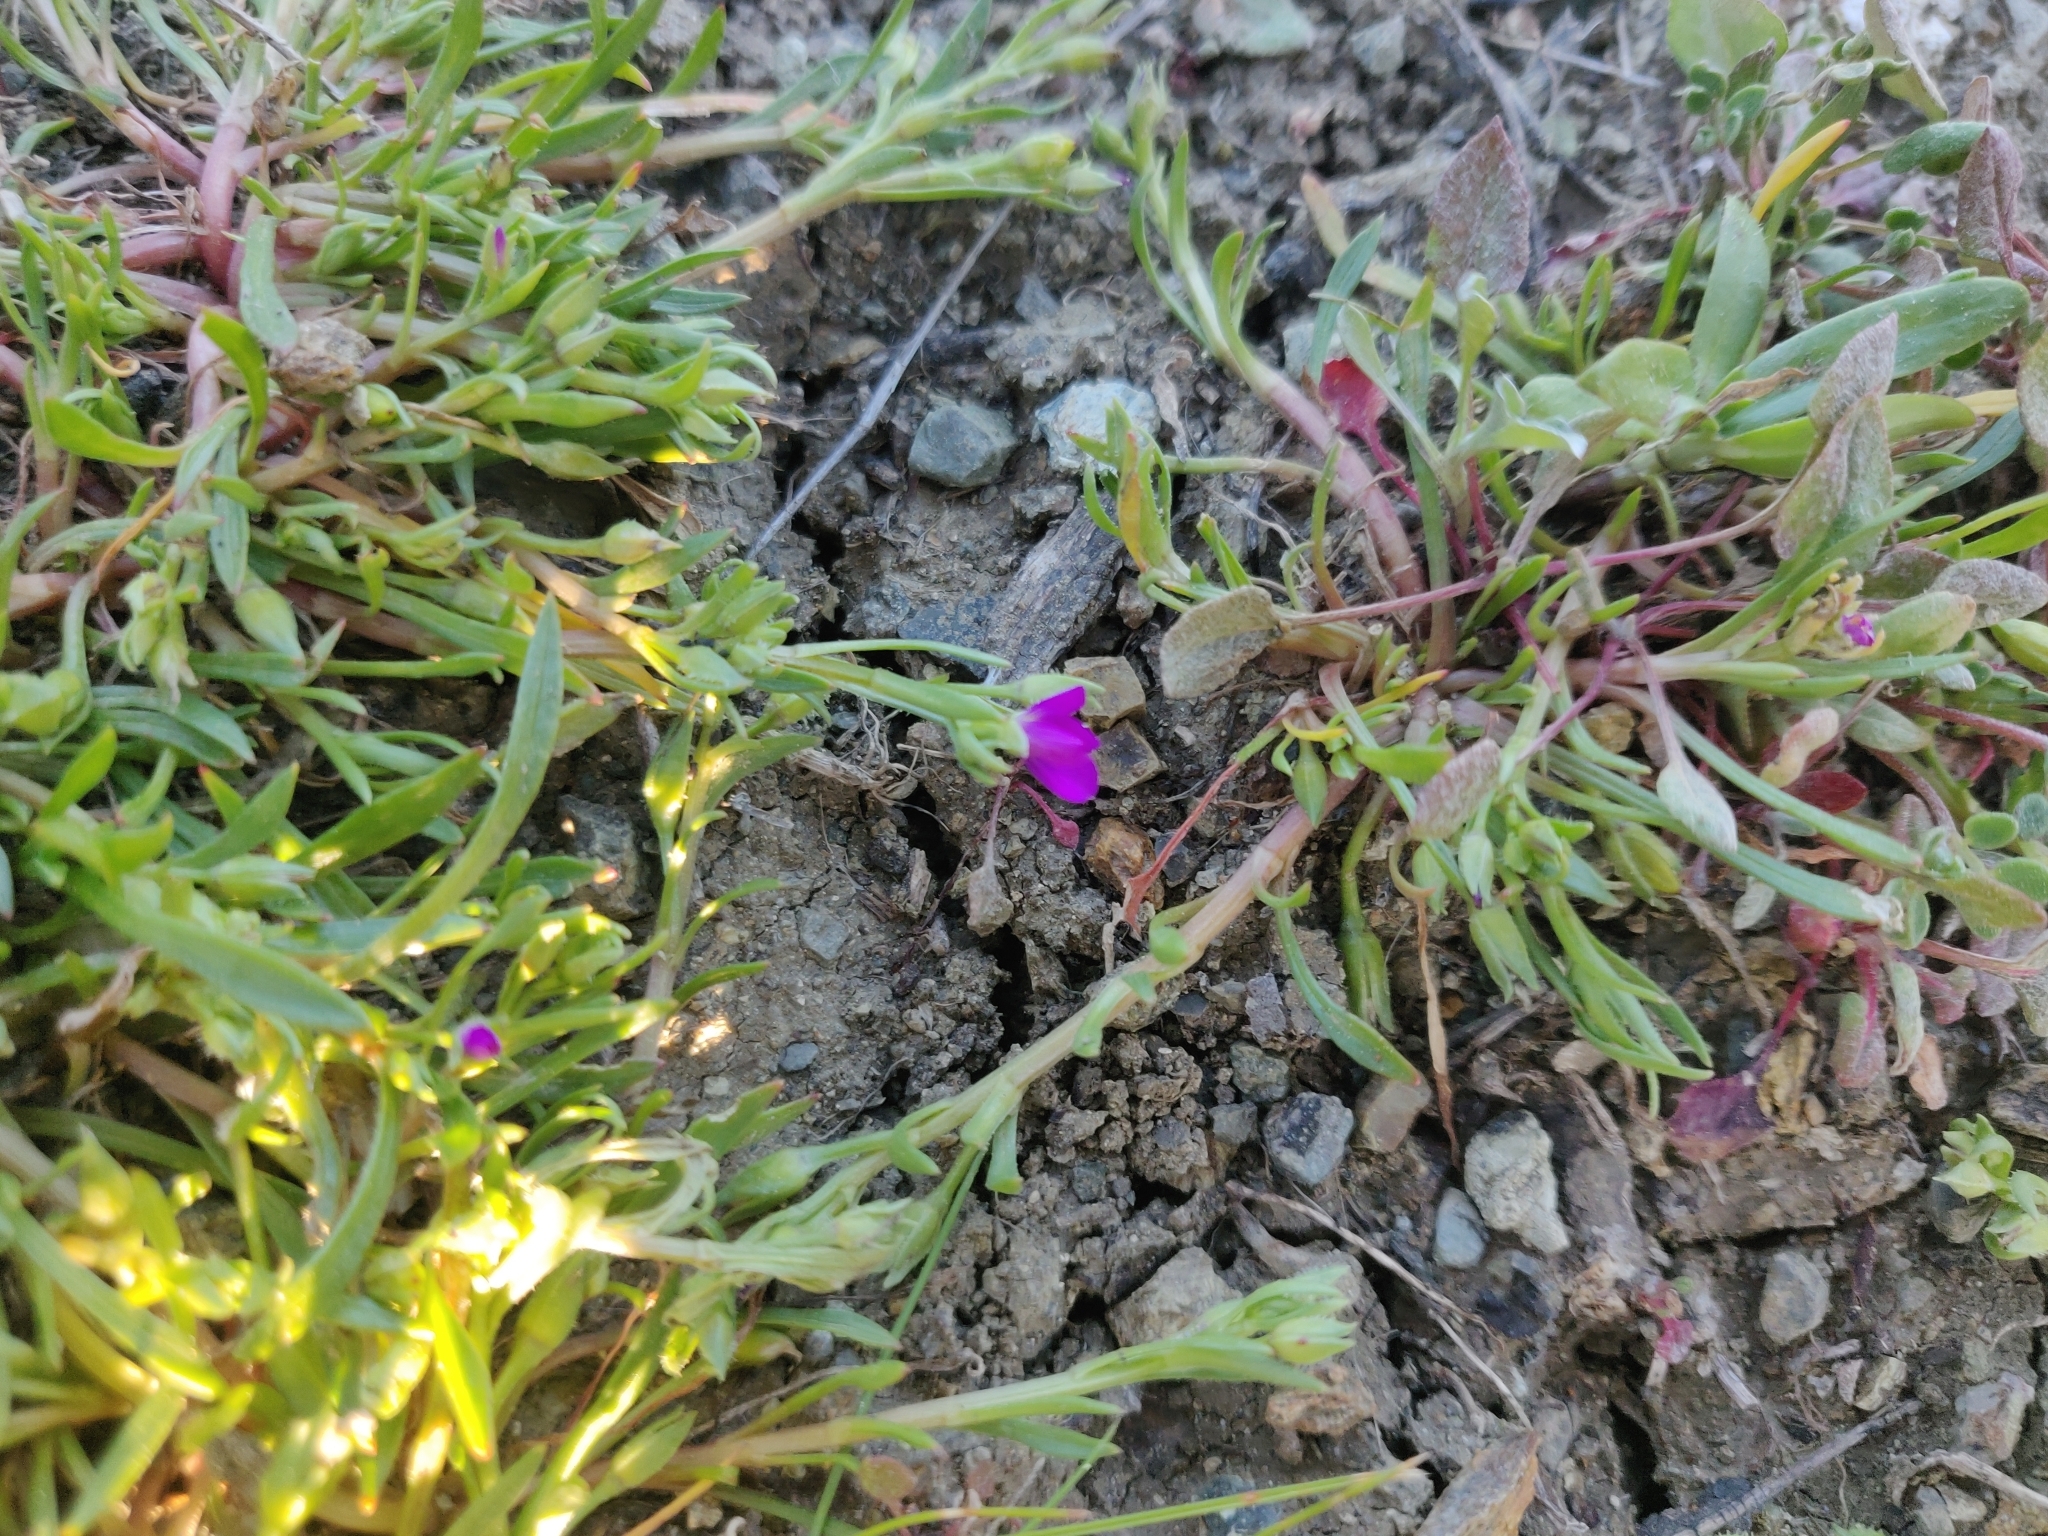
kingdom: Plantae
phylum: Tracheophyta
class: Magnoliopsida
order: Caryophyllales
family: Montiaceae
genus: Calandrinia
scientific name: Calandrinia menziesii
